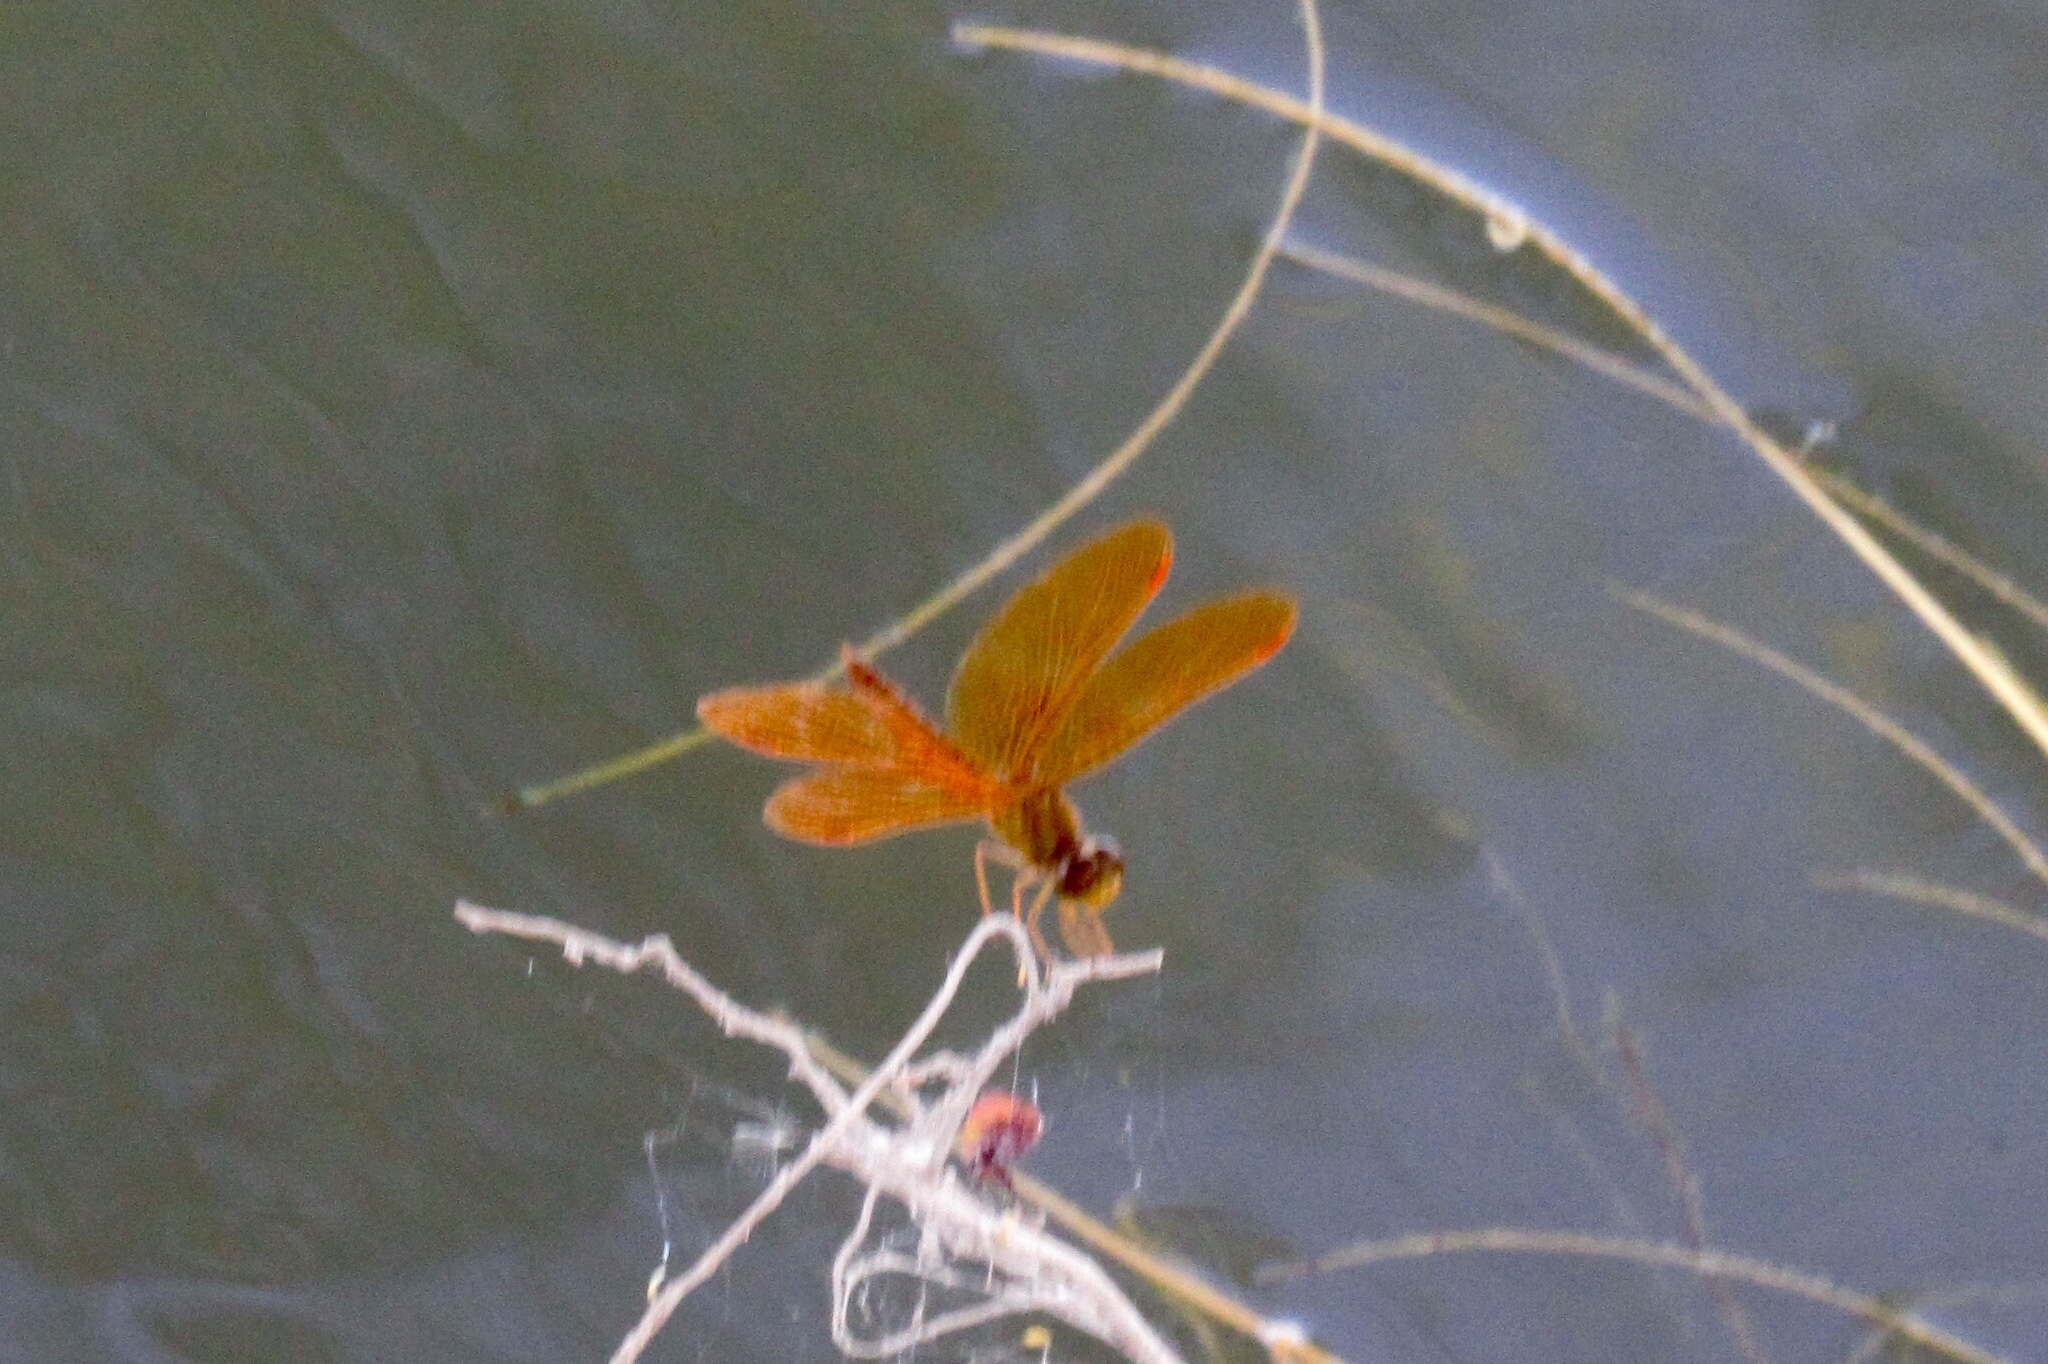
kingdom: Animalia
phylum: Arthropoda
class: Insecta
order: Odonata
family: Libellulidae
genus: Perithemis
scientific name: Perithemis intensa
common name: Mexican amberwing
